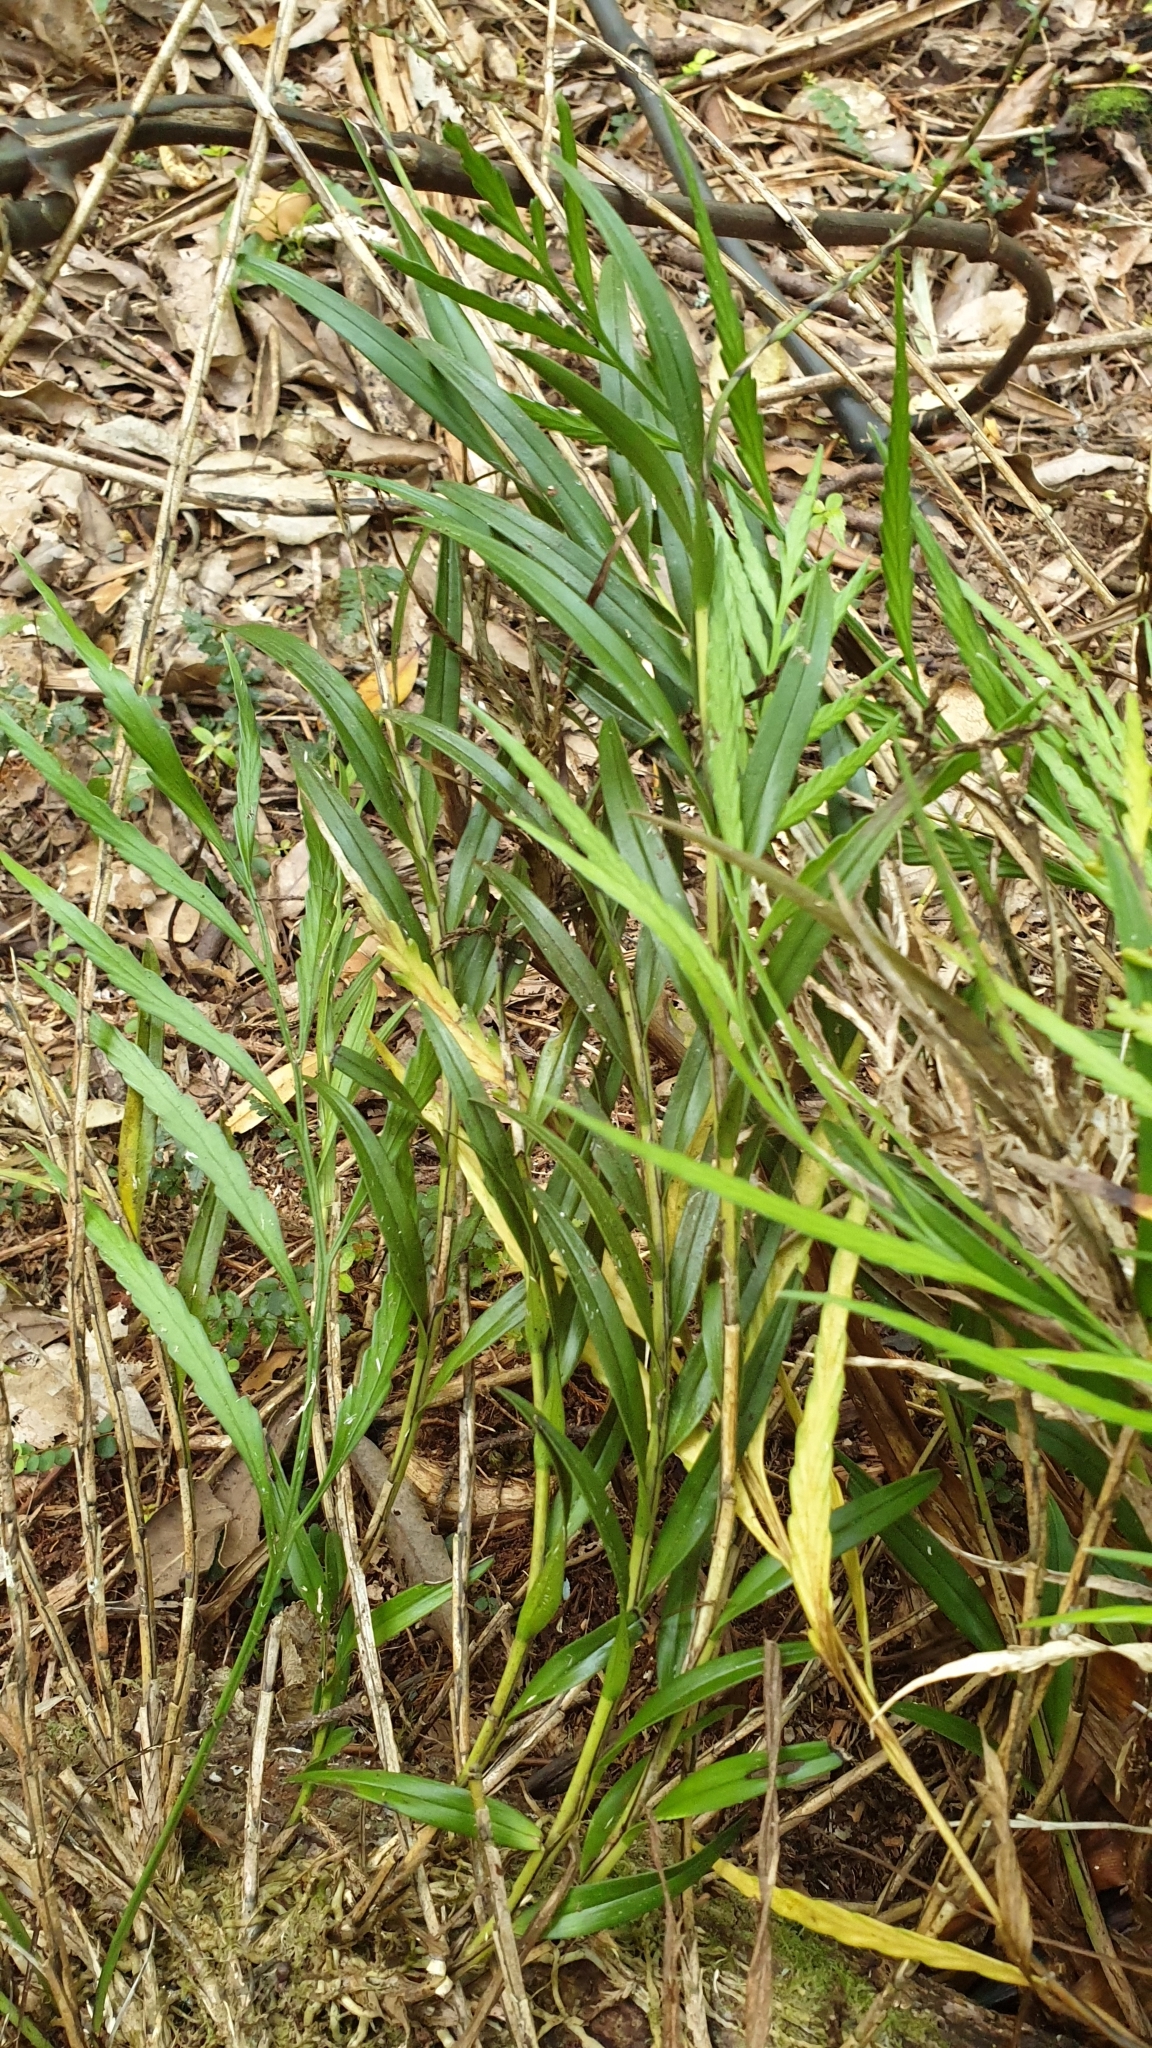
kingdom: Plantae
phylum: Tracheophyta
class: Liliopsida
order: Asparagales
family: Orchidaceae
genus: Earina
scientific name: Earina autumnalis
